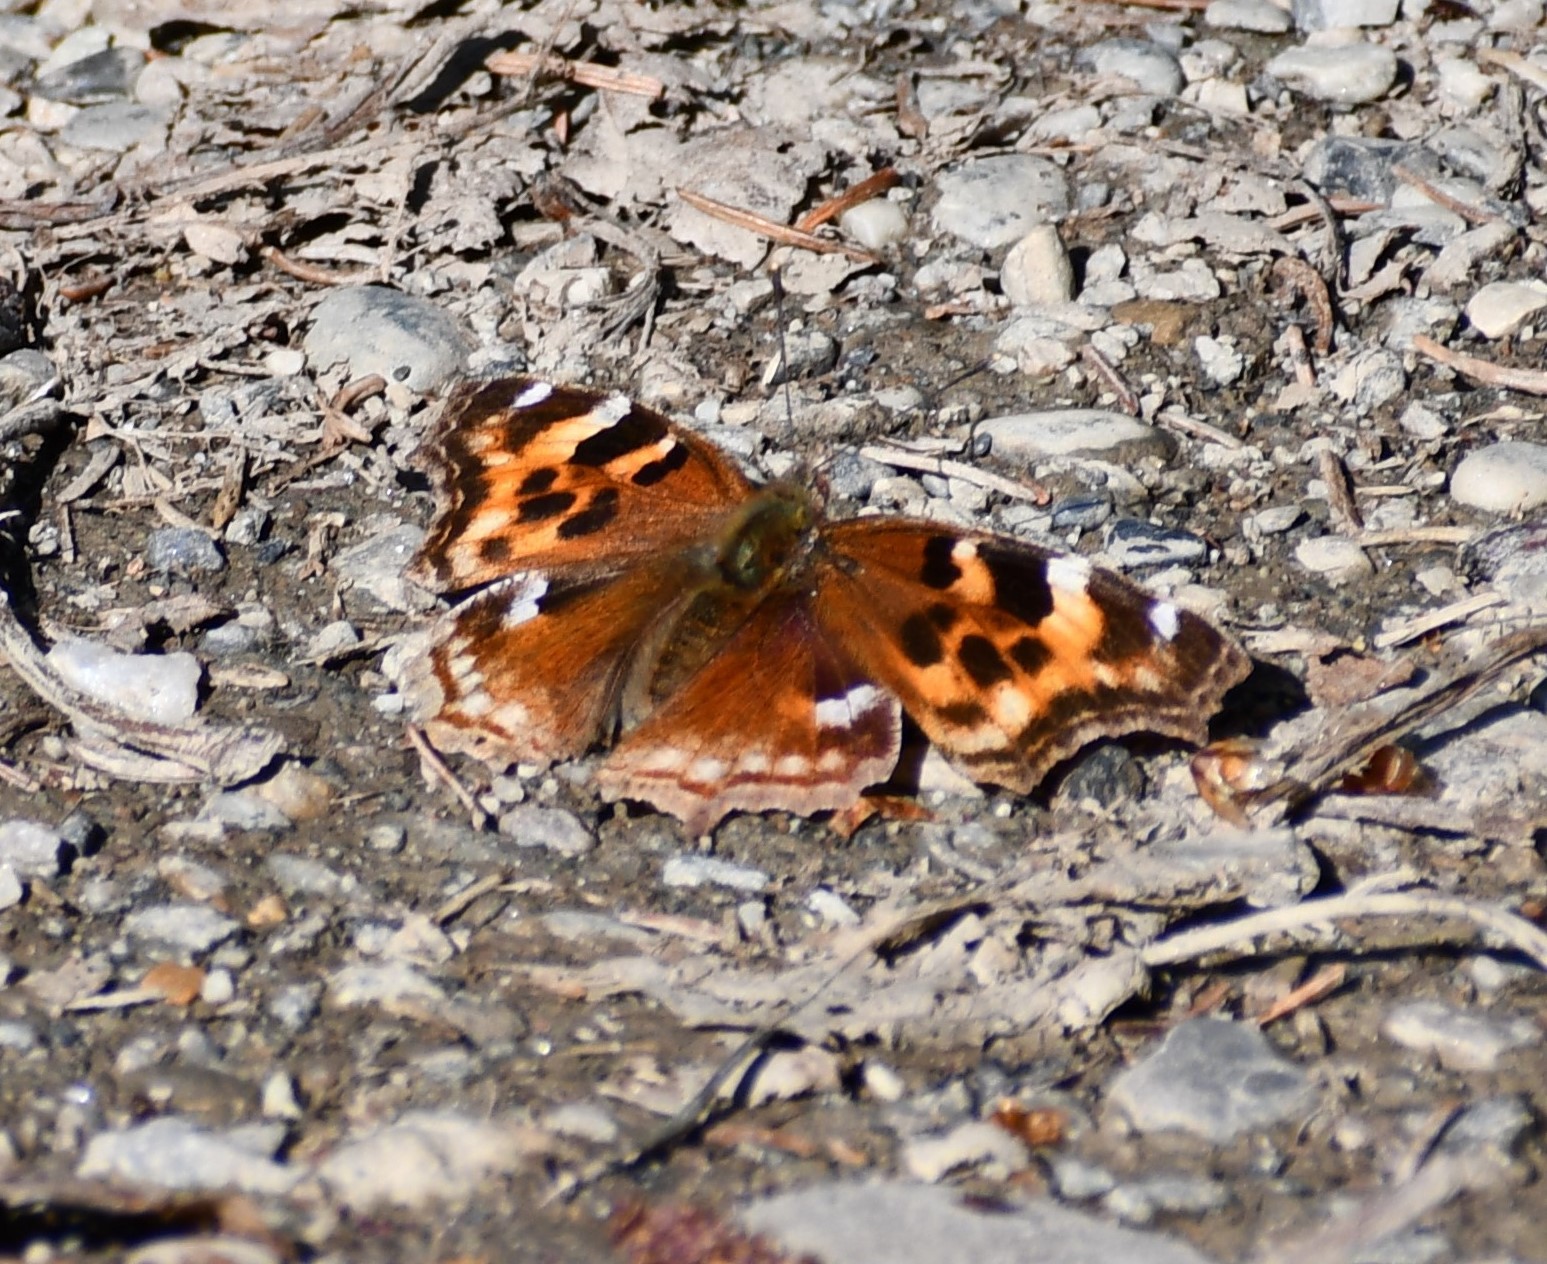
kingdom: Animalia
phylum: Arthropoda
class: Insecta
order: Lepidoptera
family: Nymphalidae
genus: Polygonia
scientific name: Polygonia vaualbum
